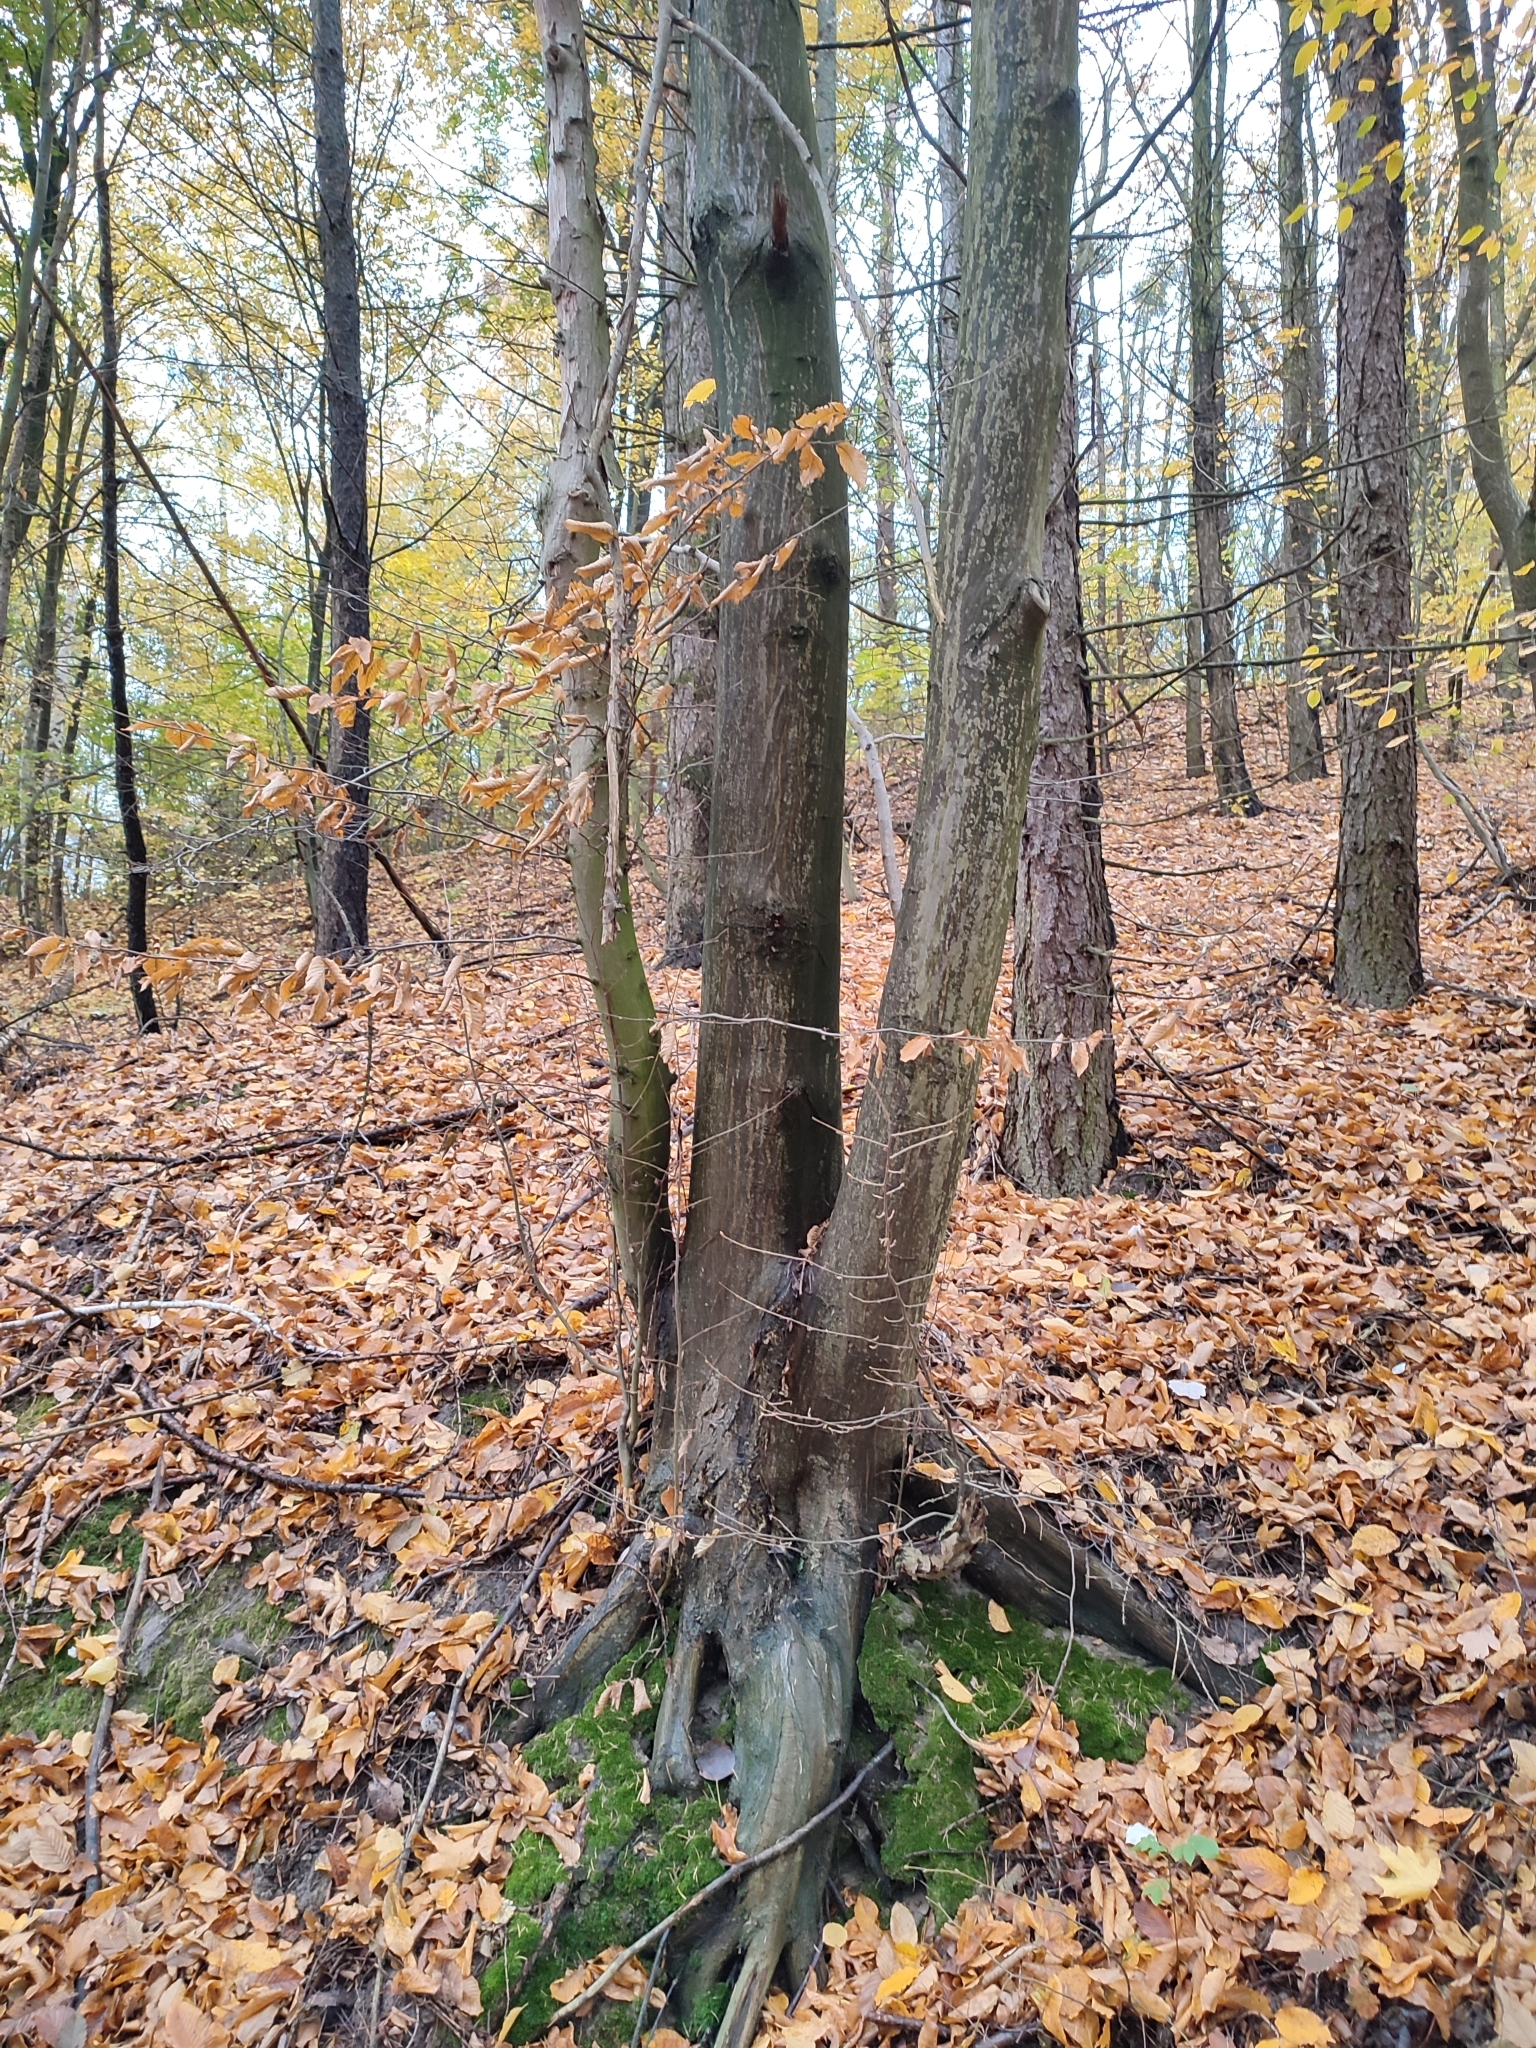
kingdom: Plantae
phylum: Tracheophyta
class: Magnoliopsida
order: Fagales
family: Betulaceae
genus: Carpinus
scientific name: Carpinus betulus
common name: Hornbeam
